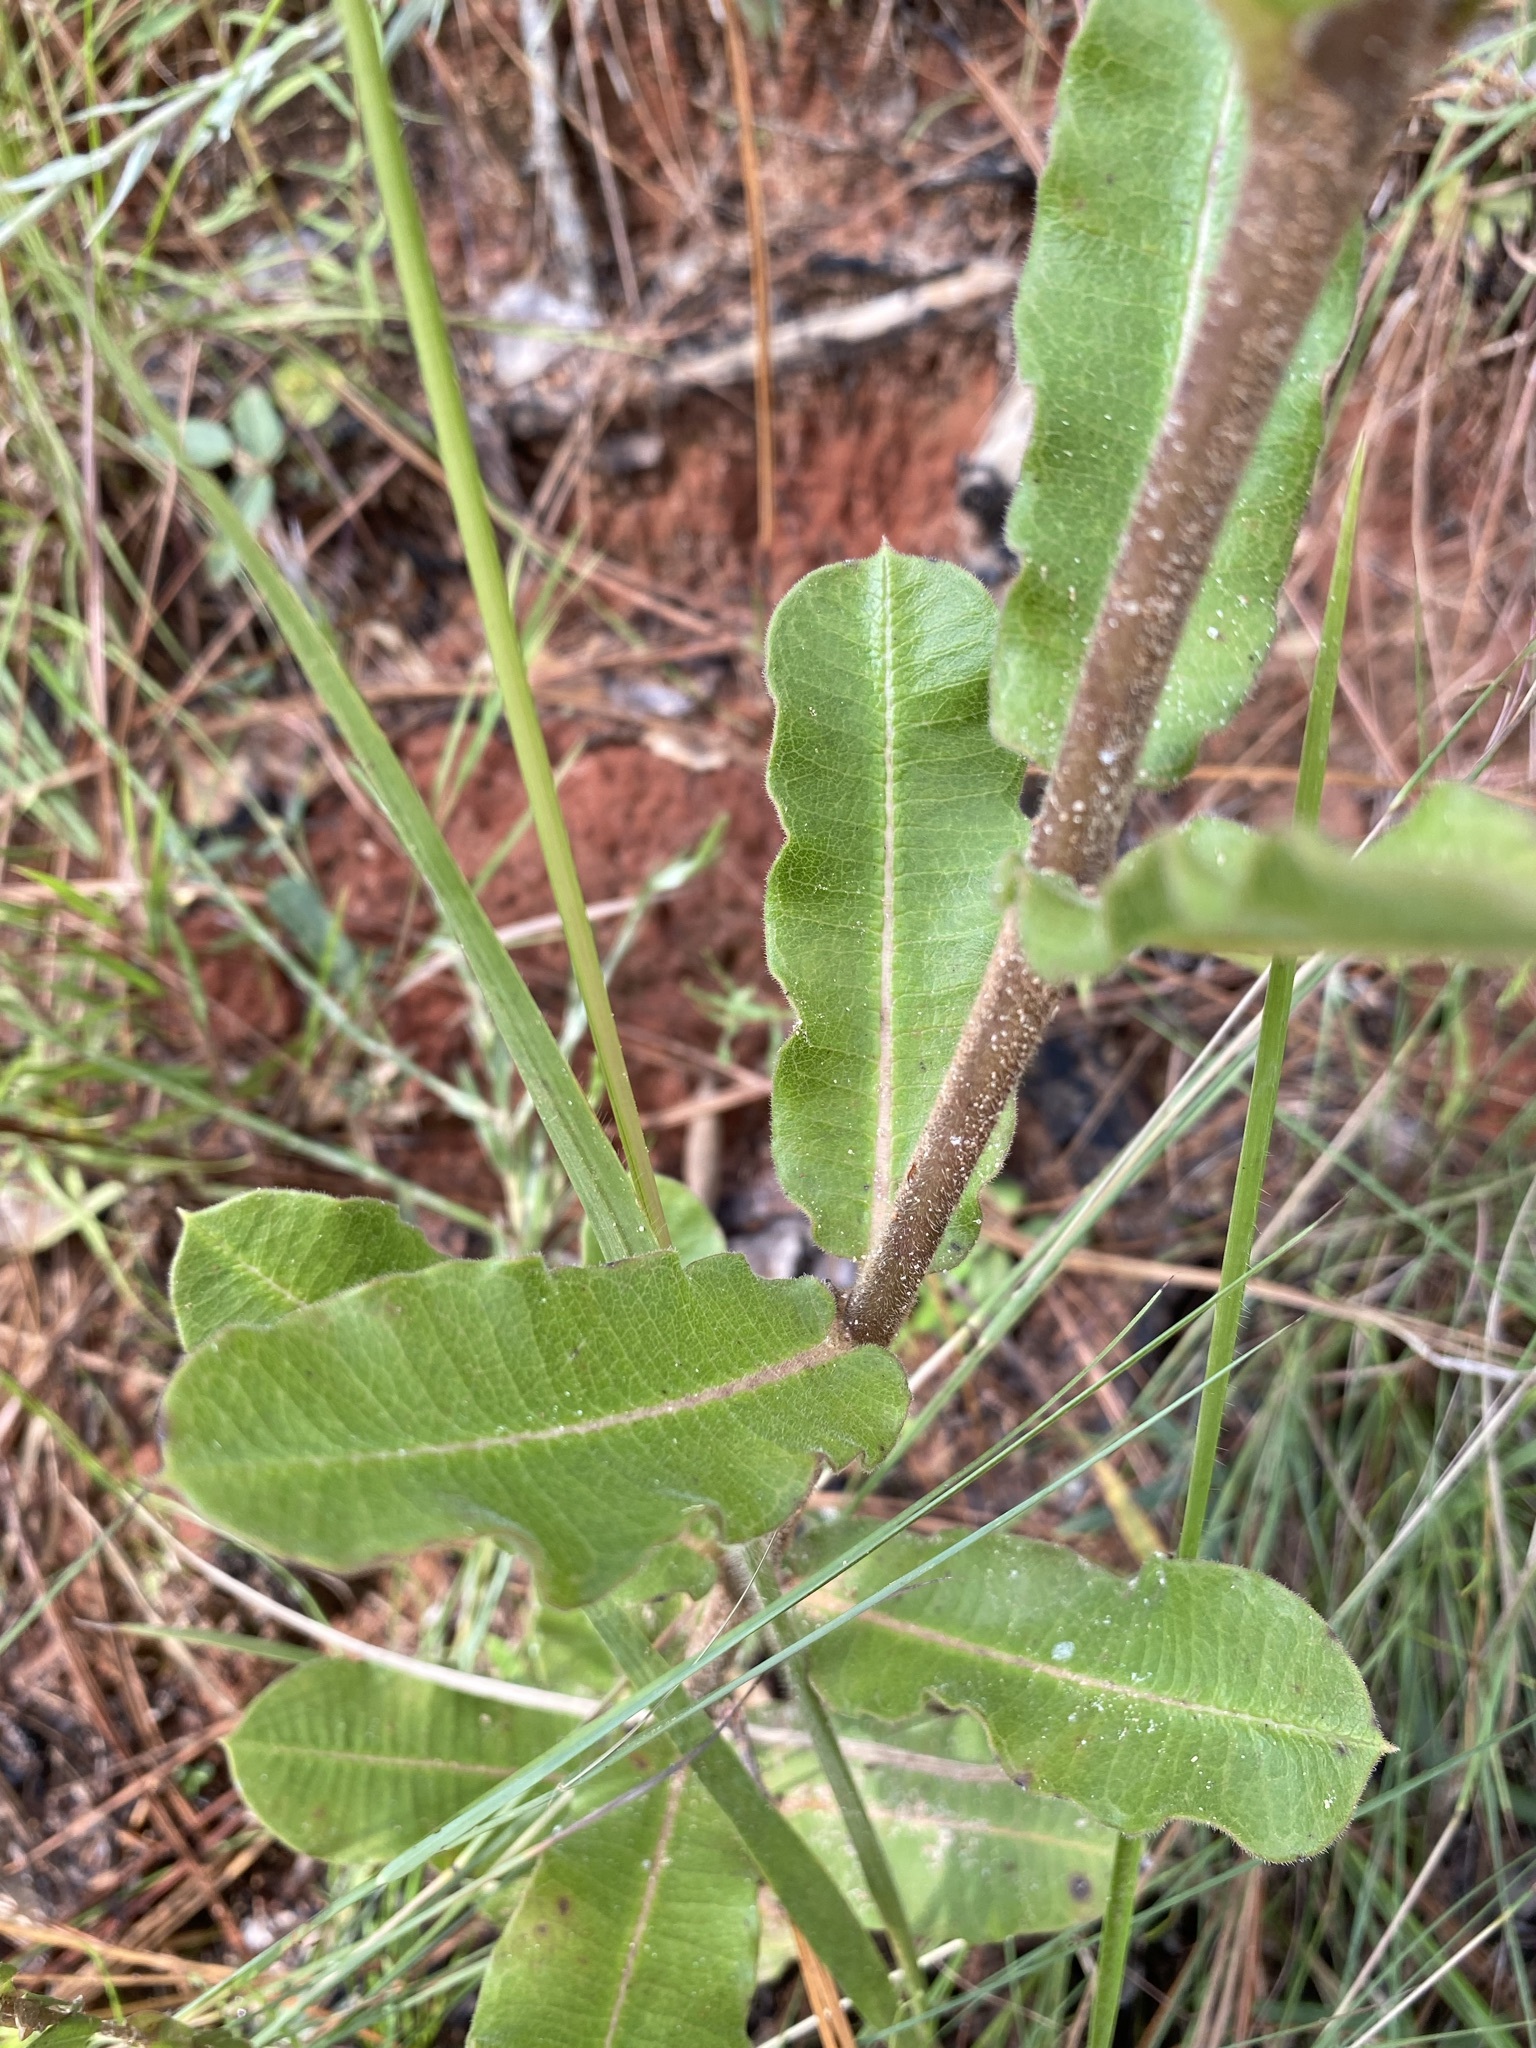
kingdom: Plantae
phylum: Tracheophyta
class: Magnoliopsida
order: Gentianales
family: Apocynaceae
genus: Asclepias
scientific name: Asclepias obovata
